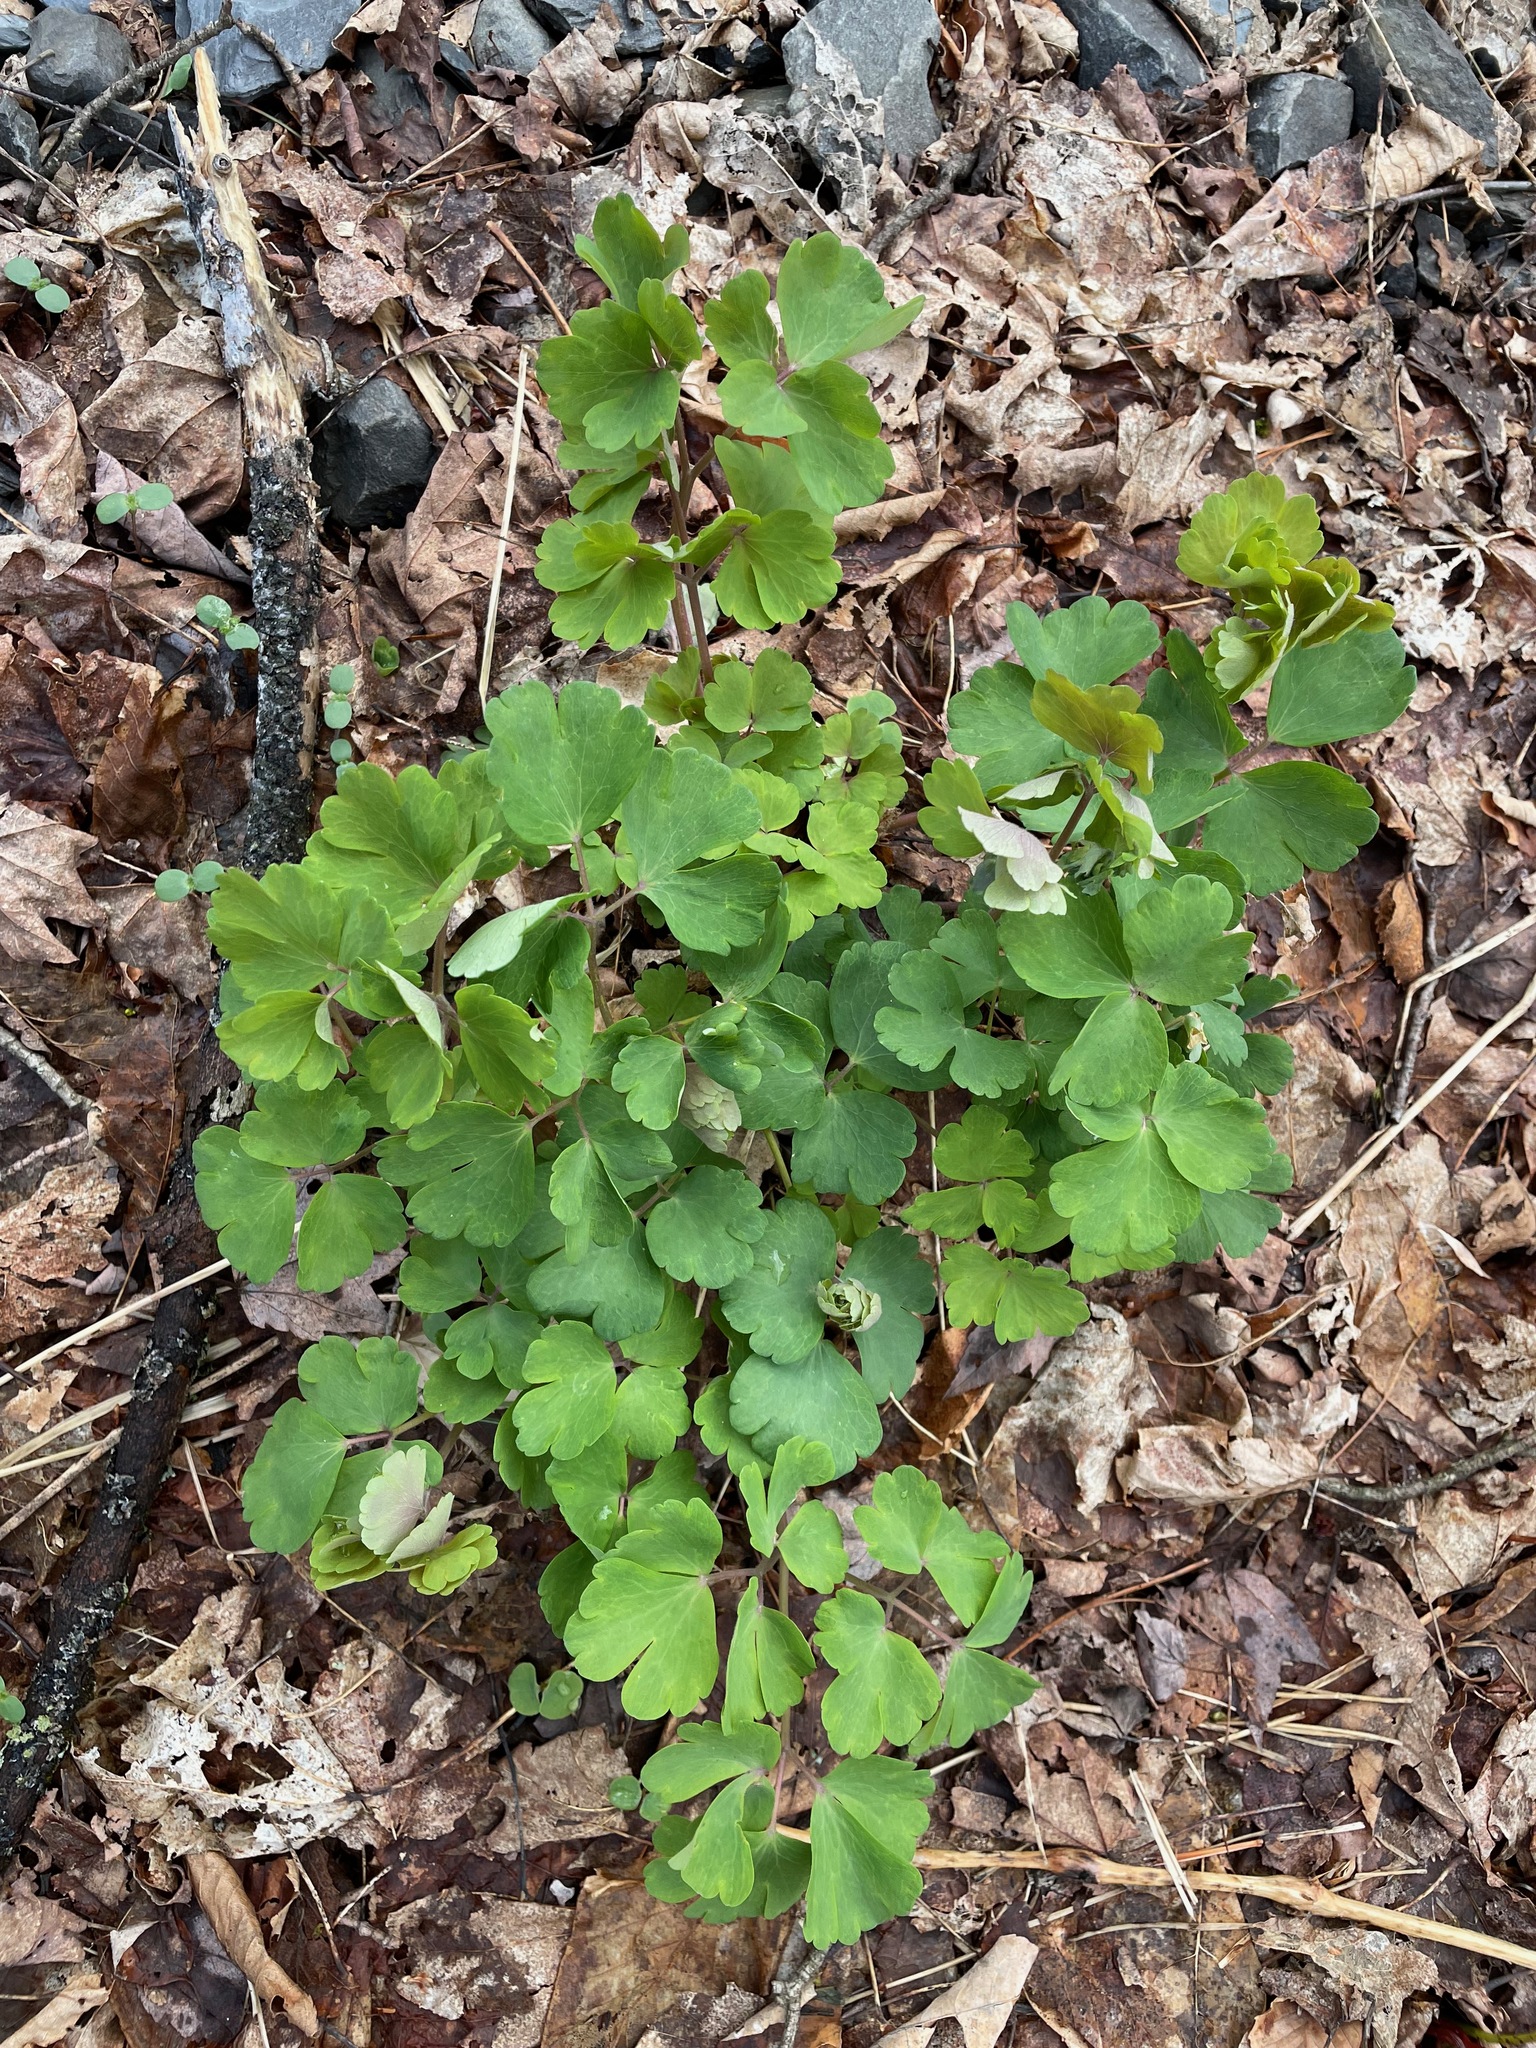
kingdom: Plantae
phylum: Tracheophyta
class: Magnoliopsida
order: Ranunculales
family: Ranunculaceae
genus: Aquilegia
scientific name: Aquilegia canadensis
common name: American columbine
